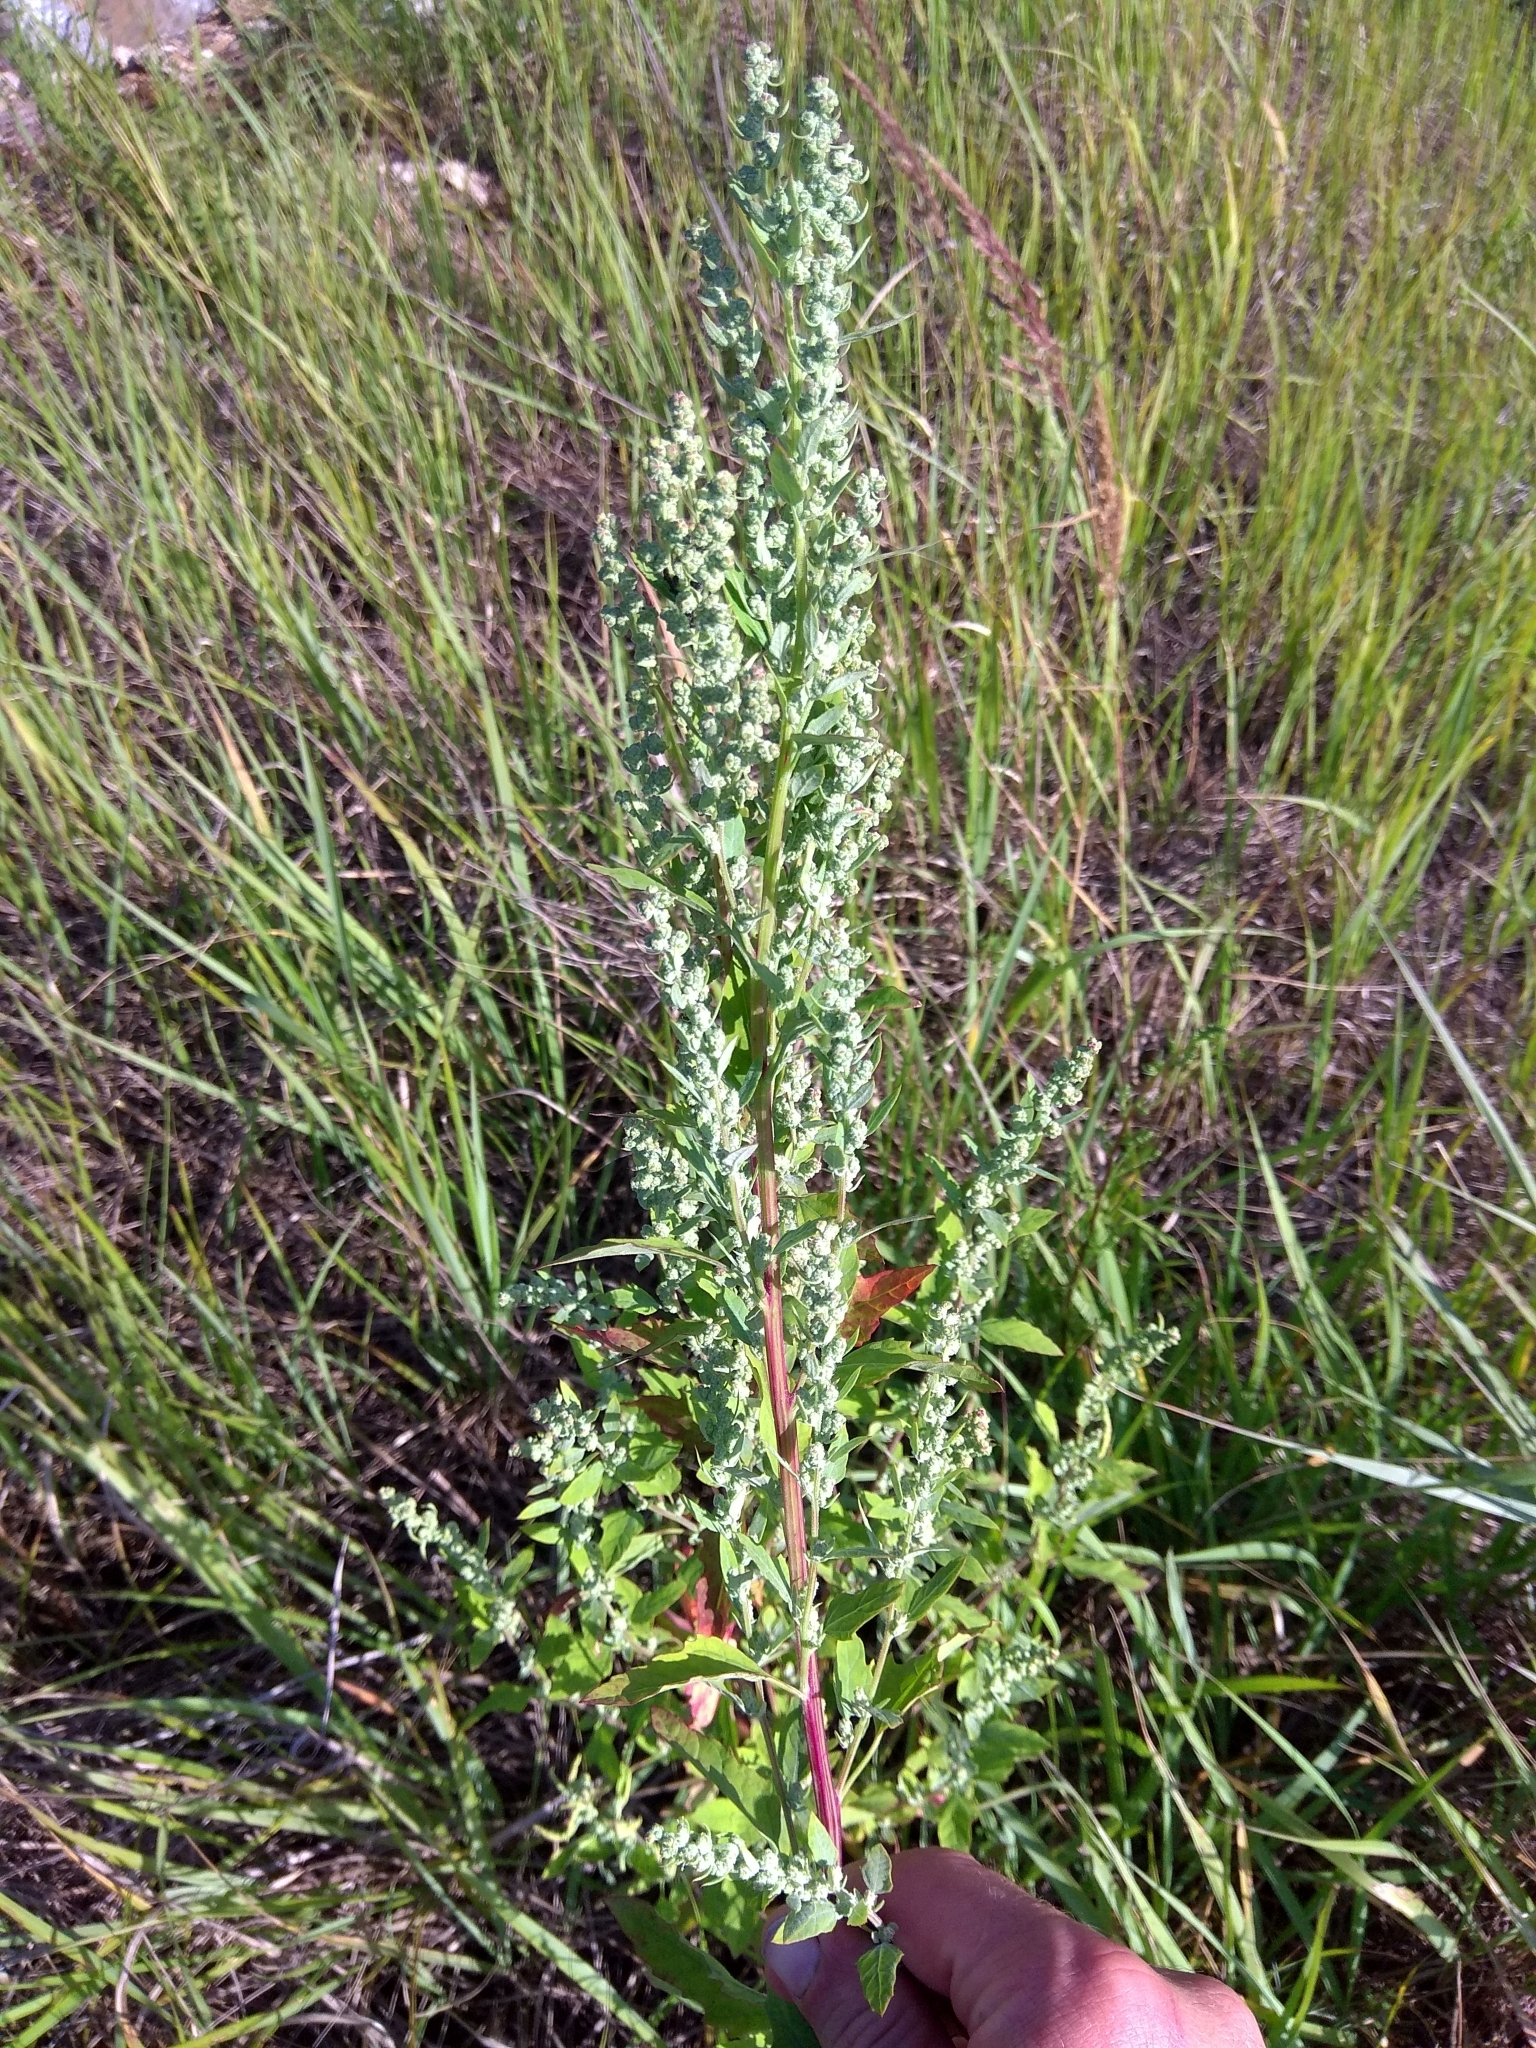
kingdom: Plantae
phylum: Tracheophyta
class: Magnoliopsida
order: Caryophyllales
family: Amaranthaceae
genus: Chenopodium
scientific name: Chenopodium album
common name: Fat-hen
